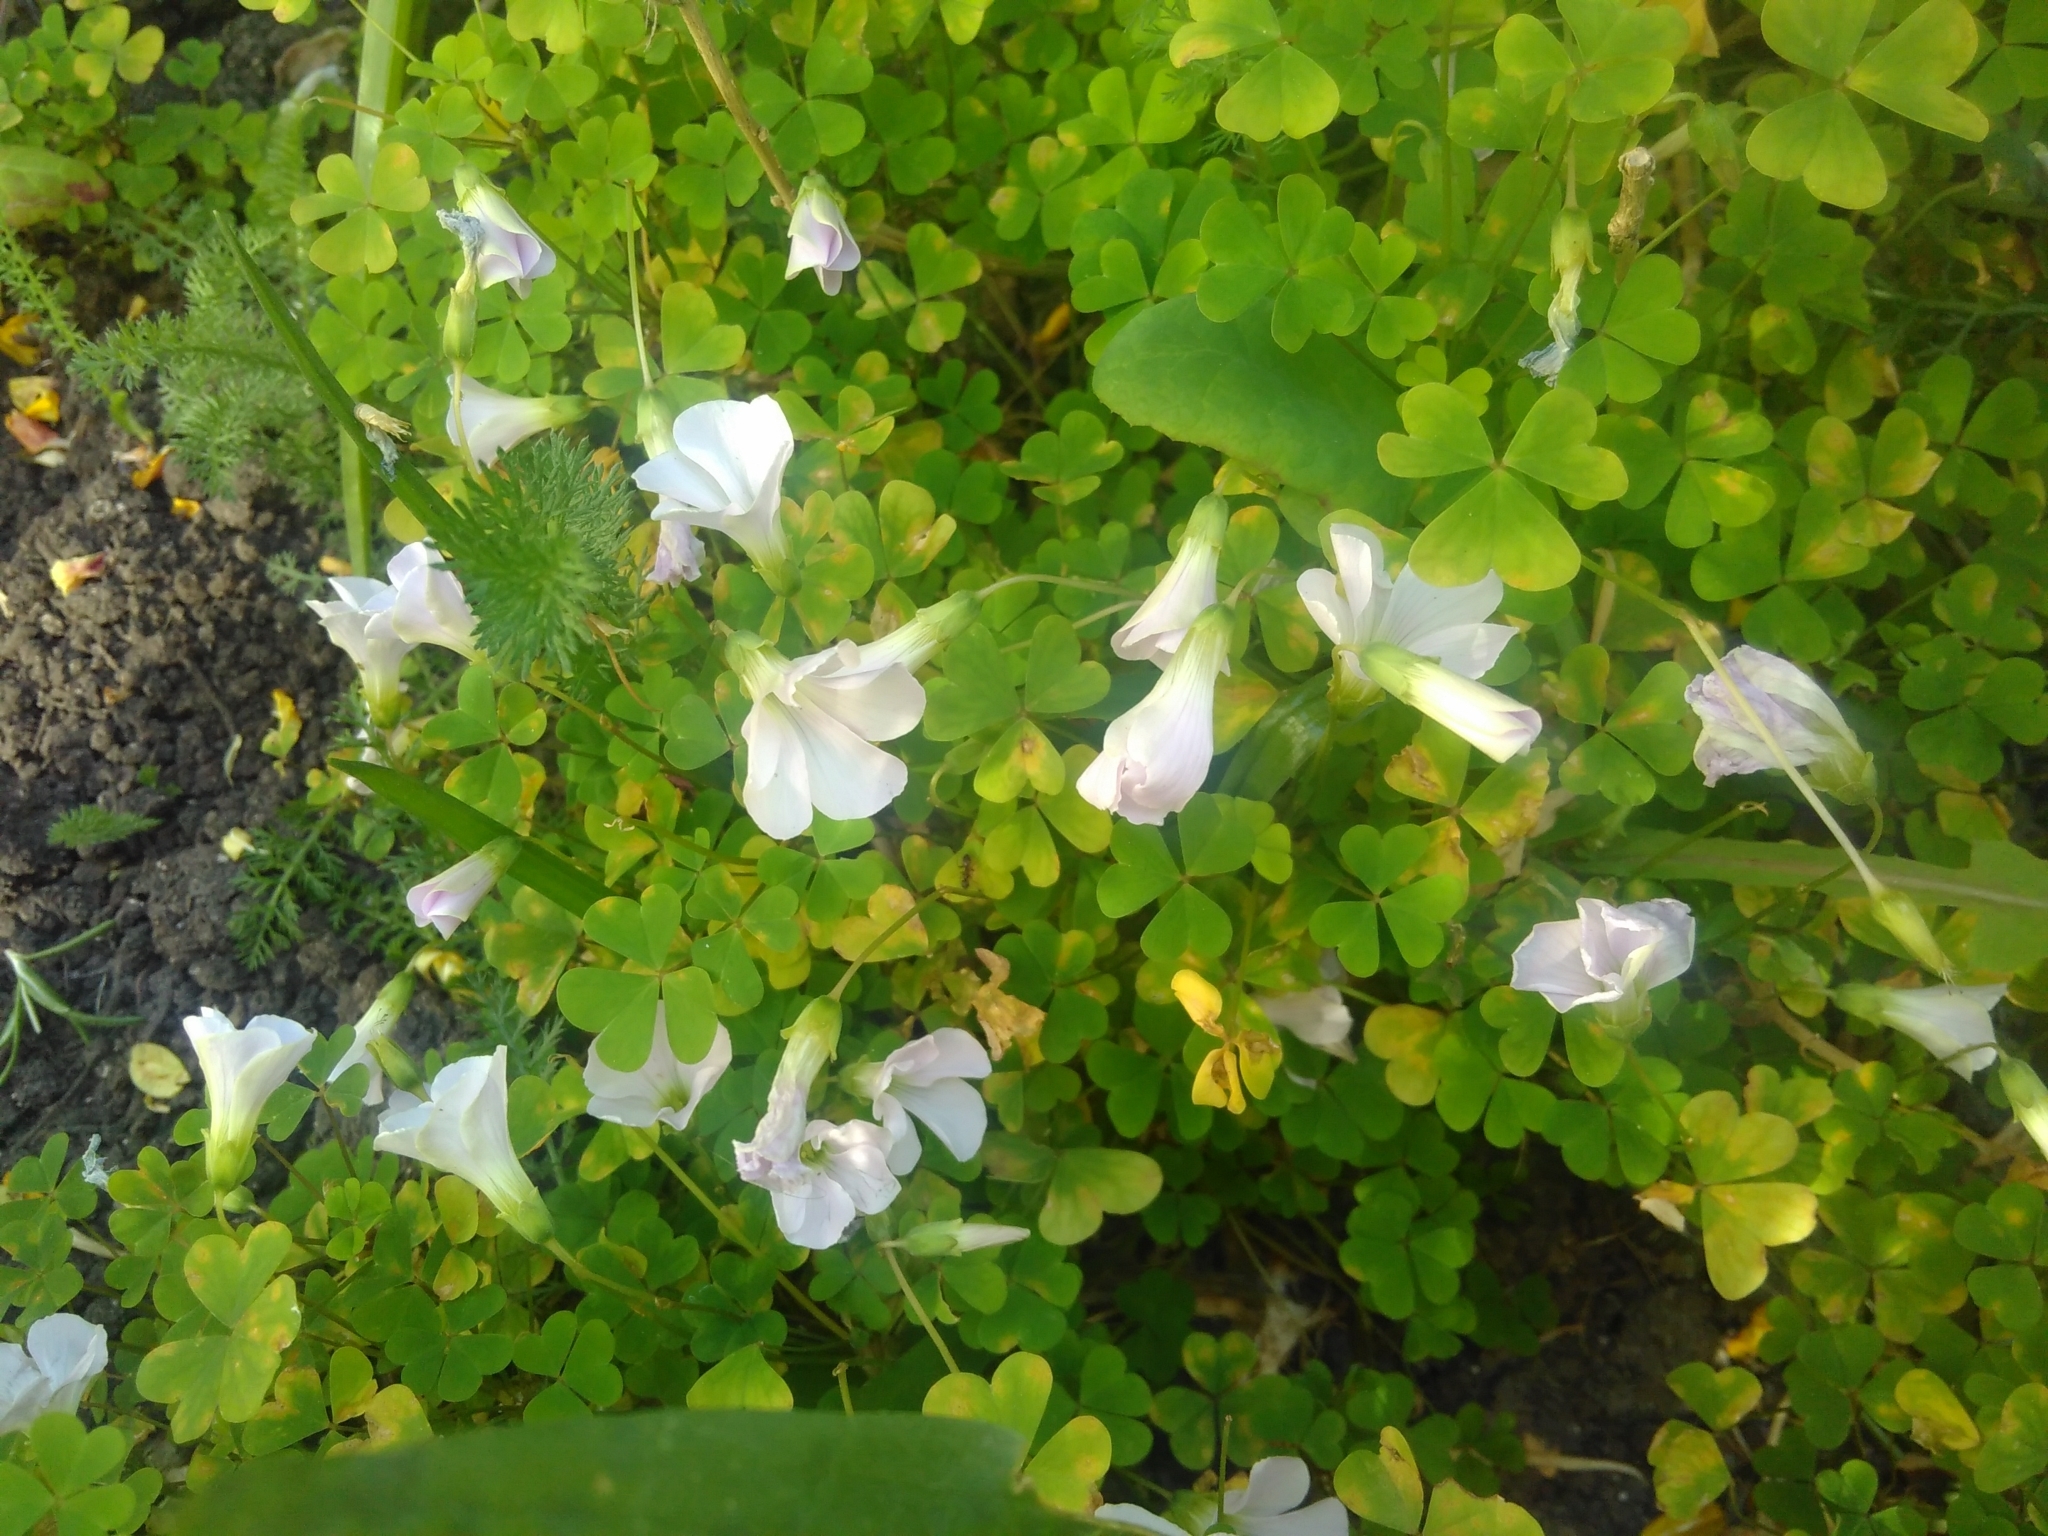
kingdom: Plantae
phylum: Tracheophyta
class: Magnoliopsida
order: Oxalidales
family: Oxalidaceae
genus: Oxalis
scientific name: Oxalis incarnata
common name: Pale pink-sorrel
